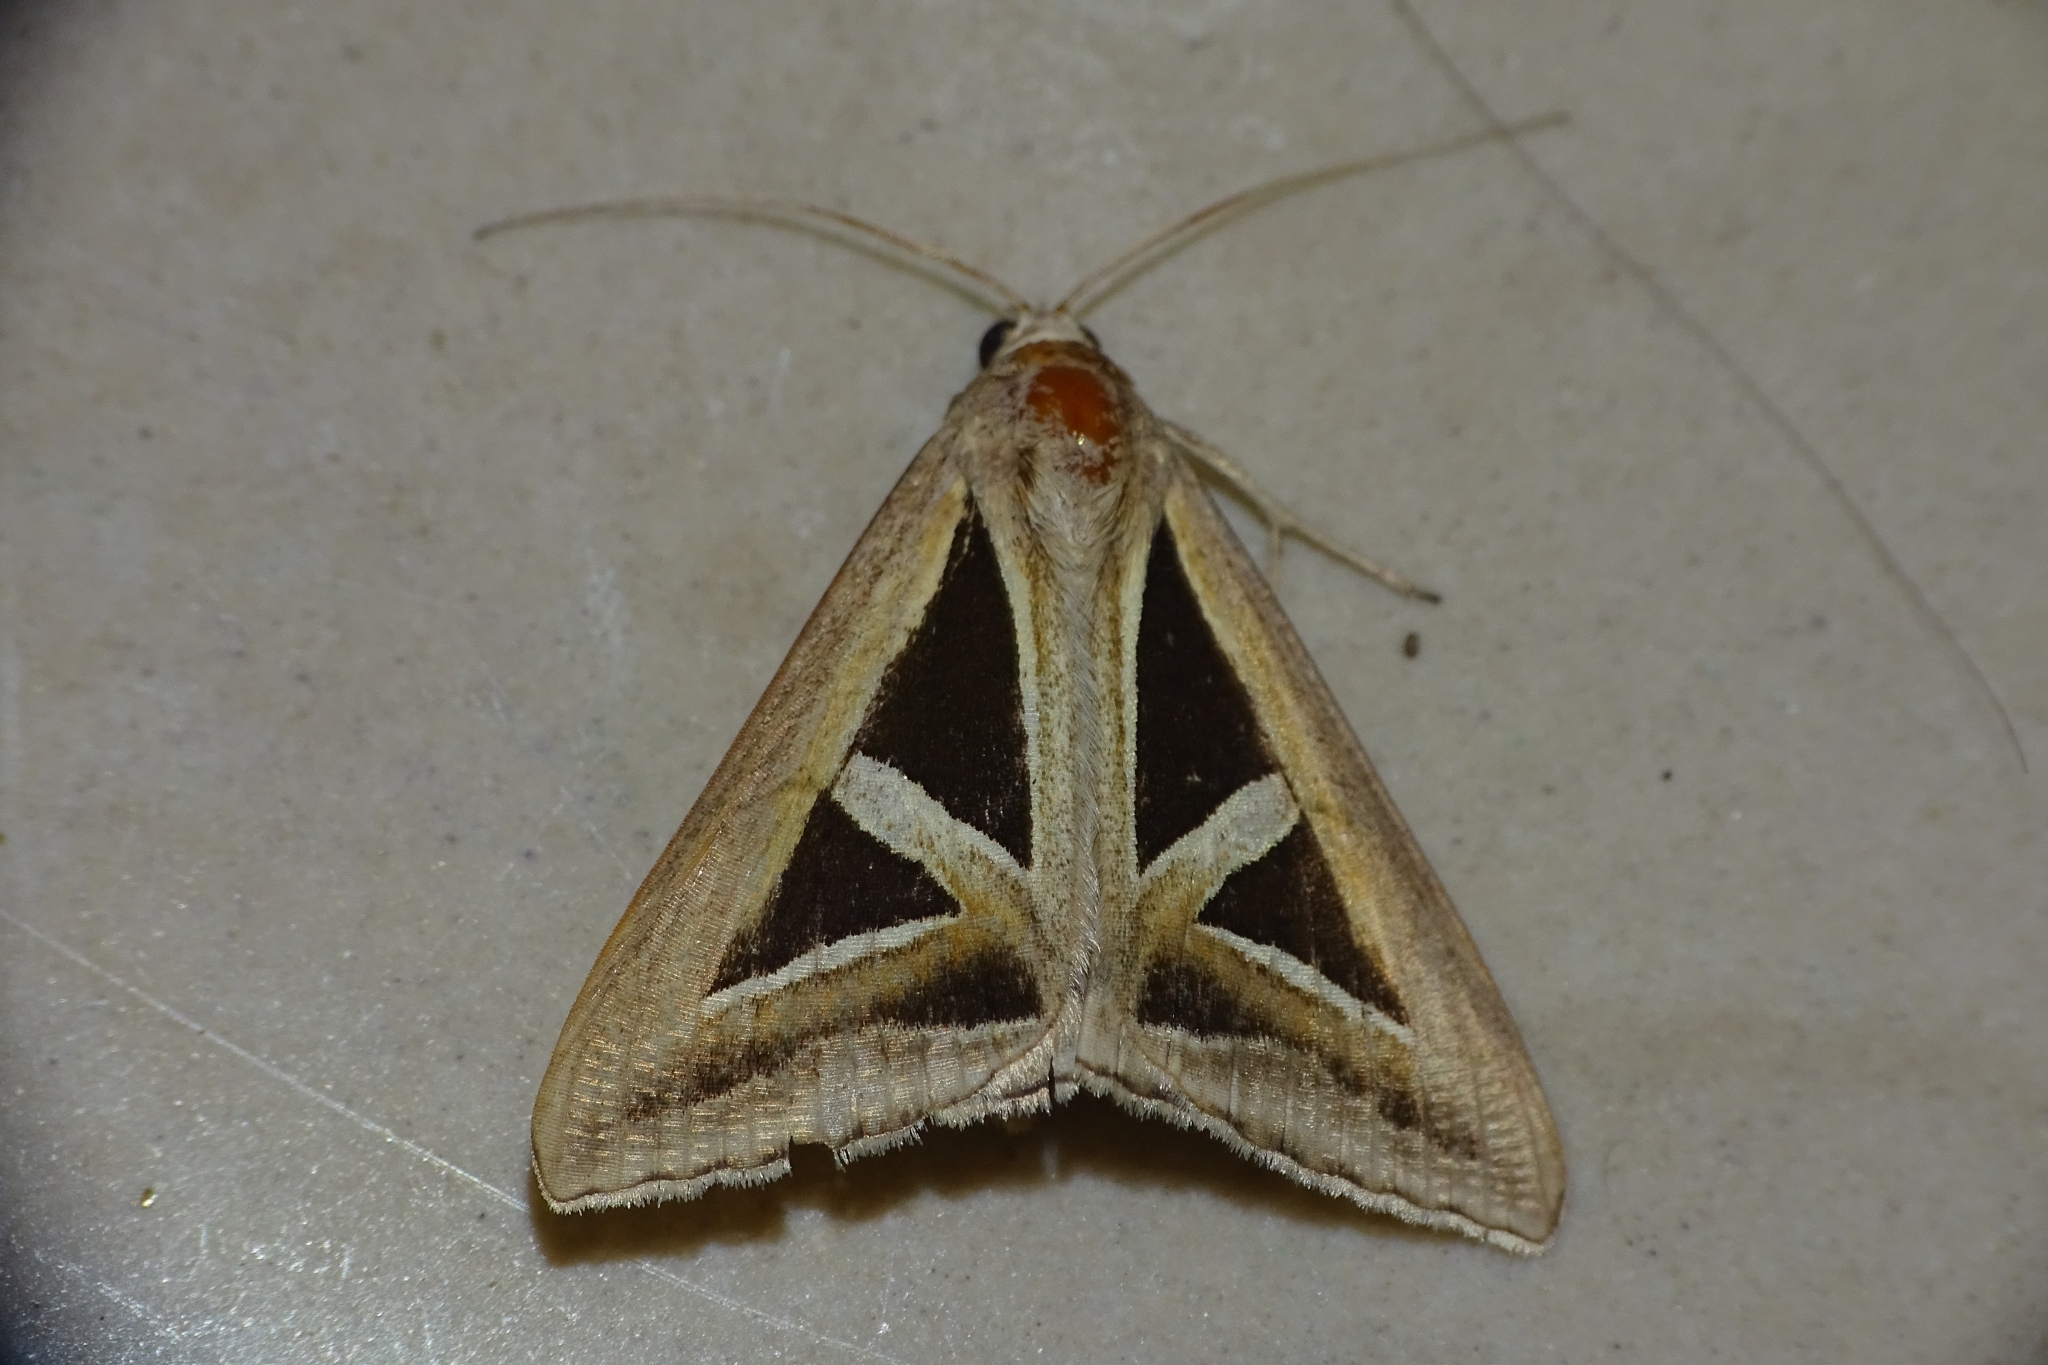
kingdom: Animalia
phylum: Arthropoda
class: Insecta
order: Lepidoptera
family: Erebidae
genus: Trigonodes
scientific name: Trigonodes hyppasia
